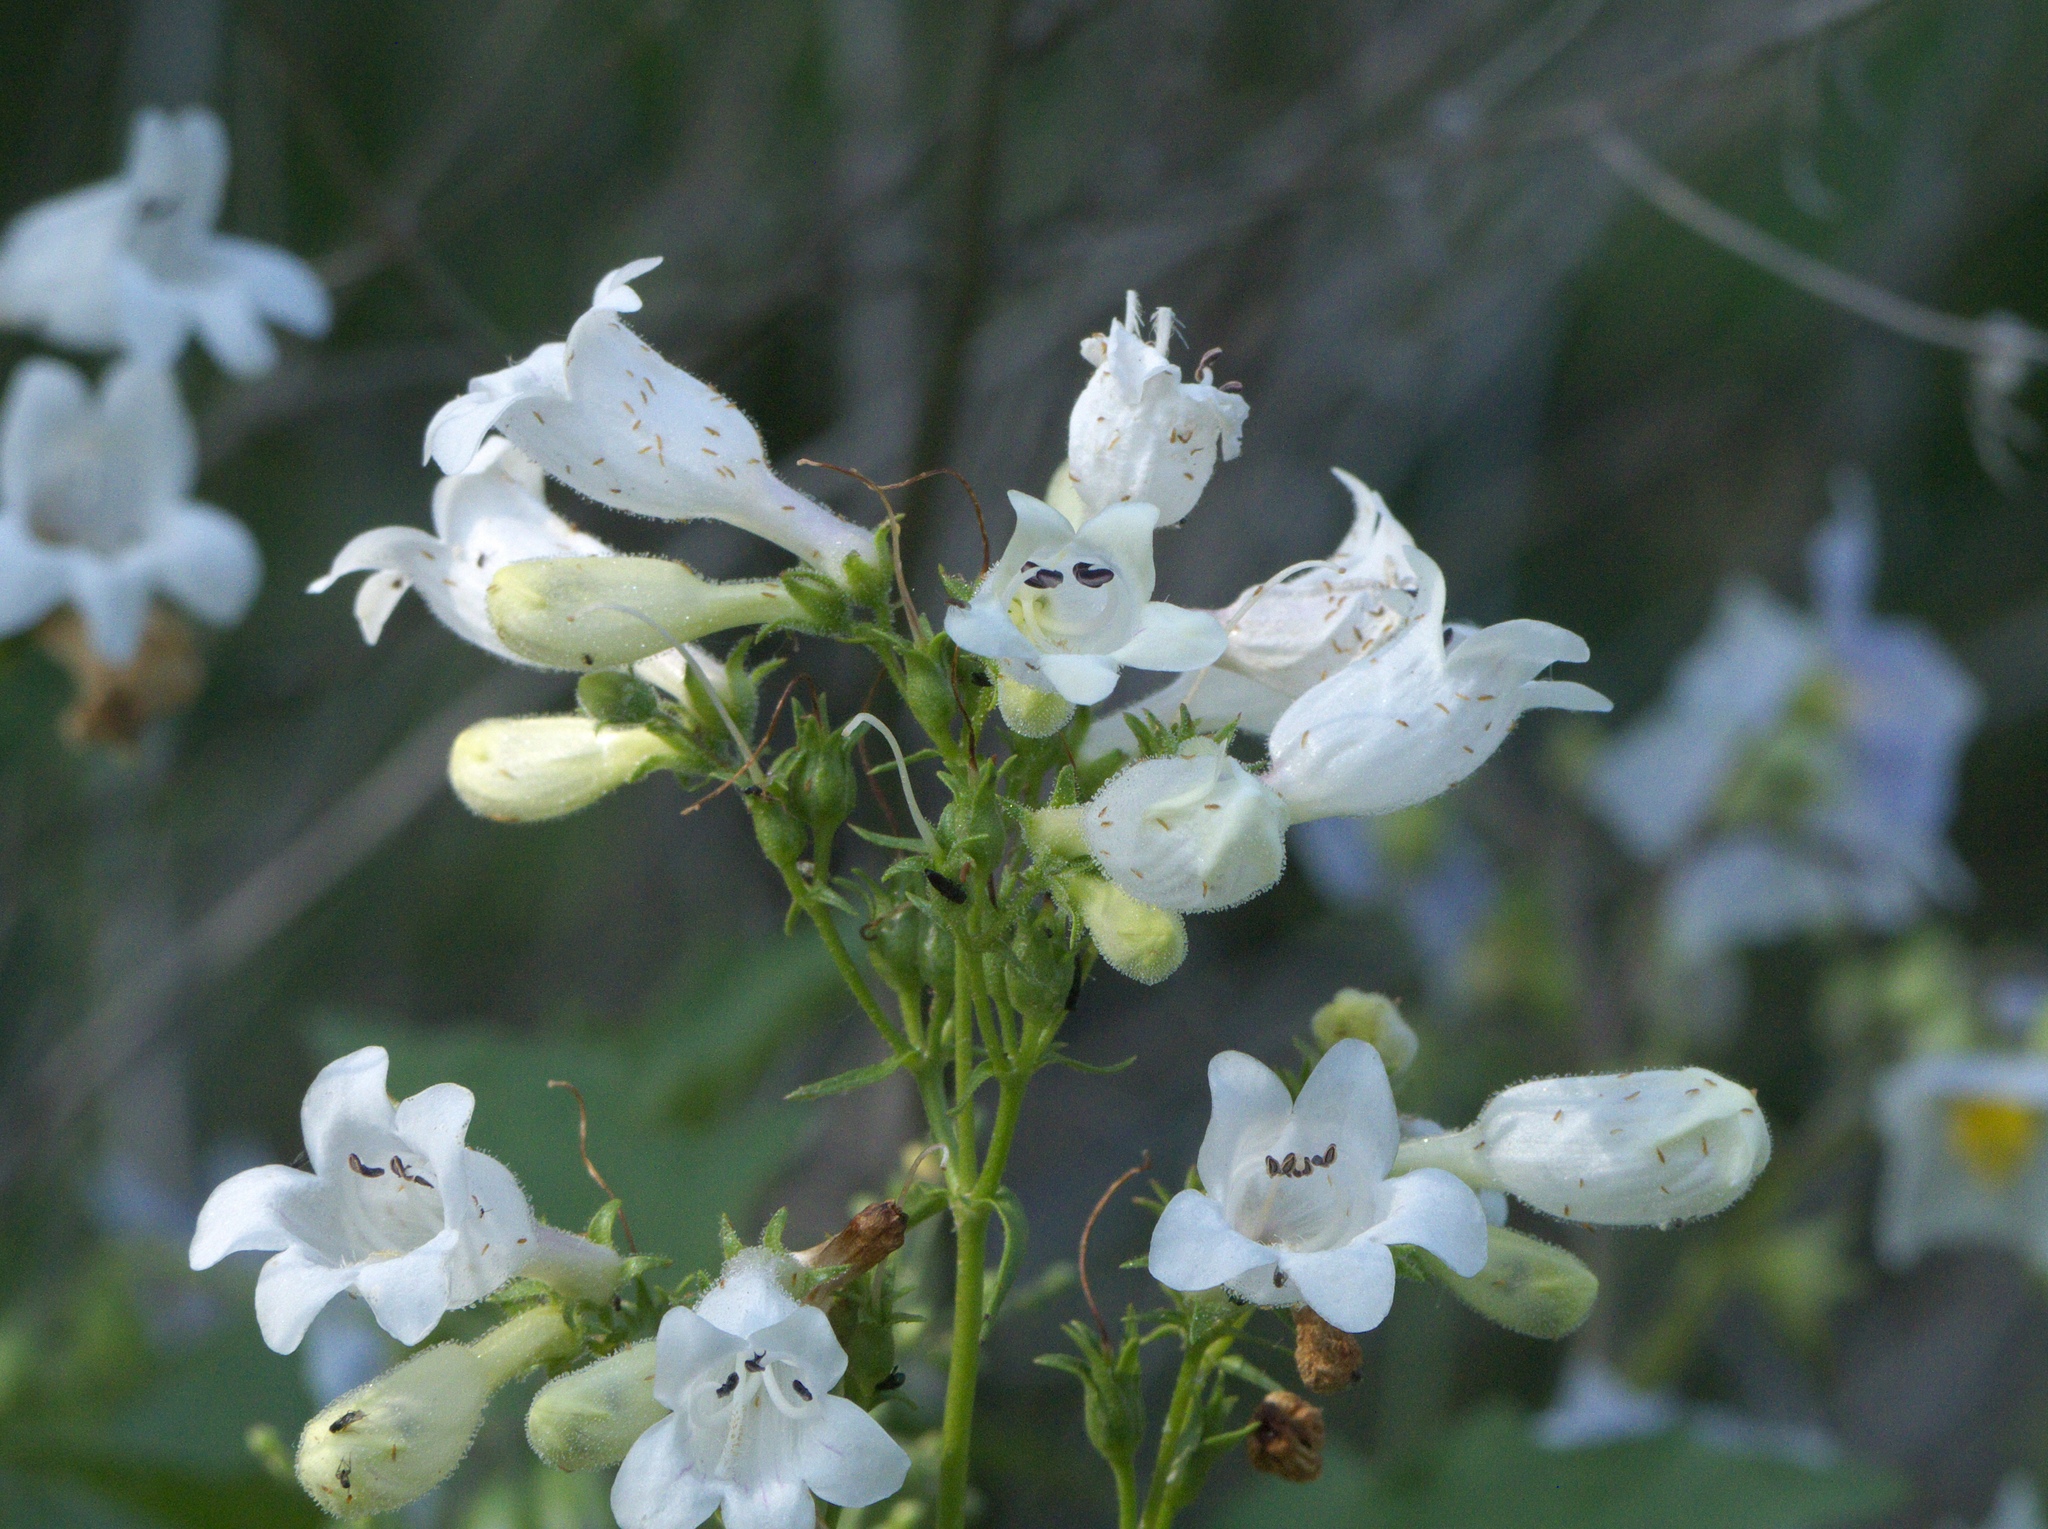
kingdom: Plantae
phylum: Tracheophyta
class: Magnoliopsida
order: Lamiales
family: Plantaginaceae
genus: Penstemon
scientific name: Penstemon digitalis
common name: Foxglove beardtongue
